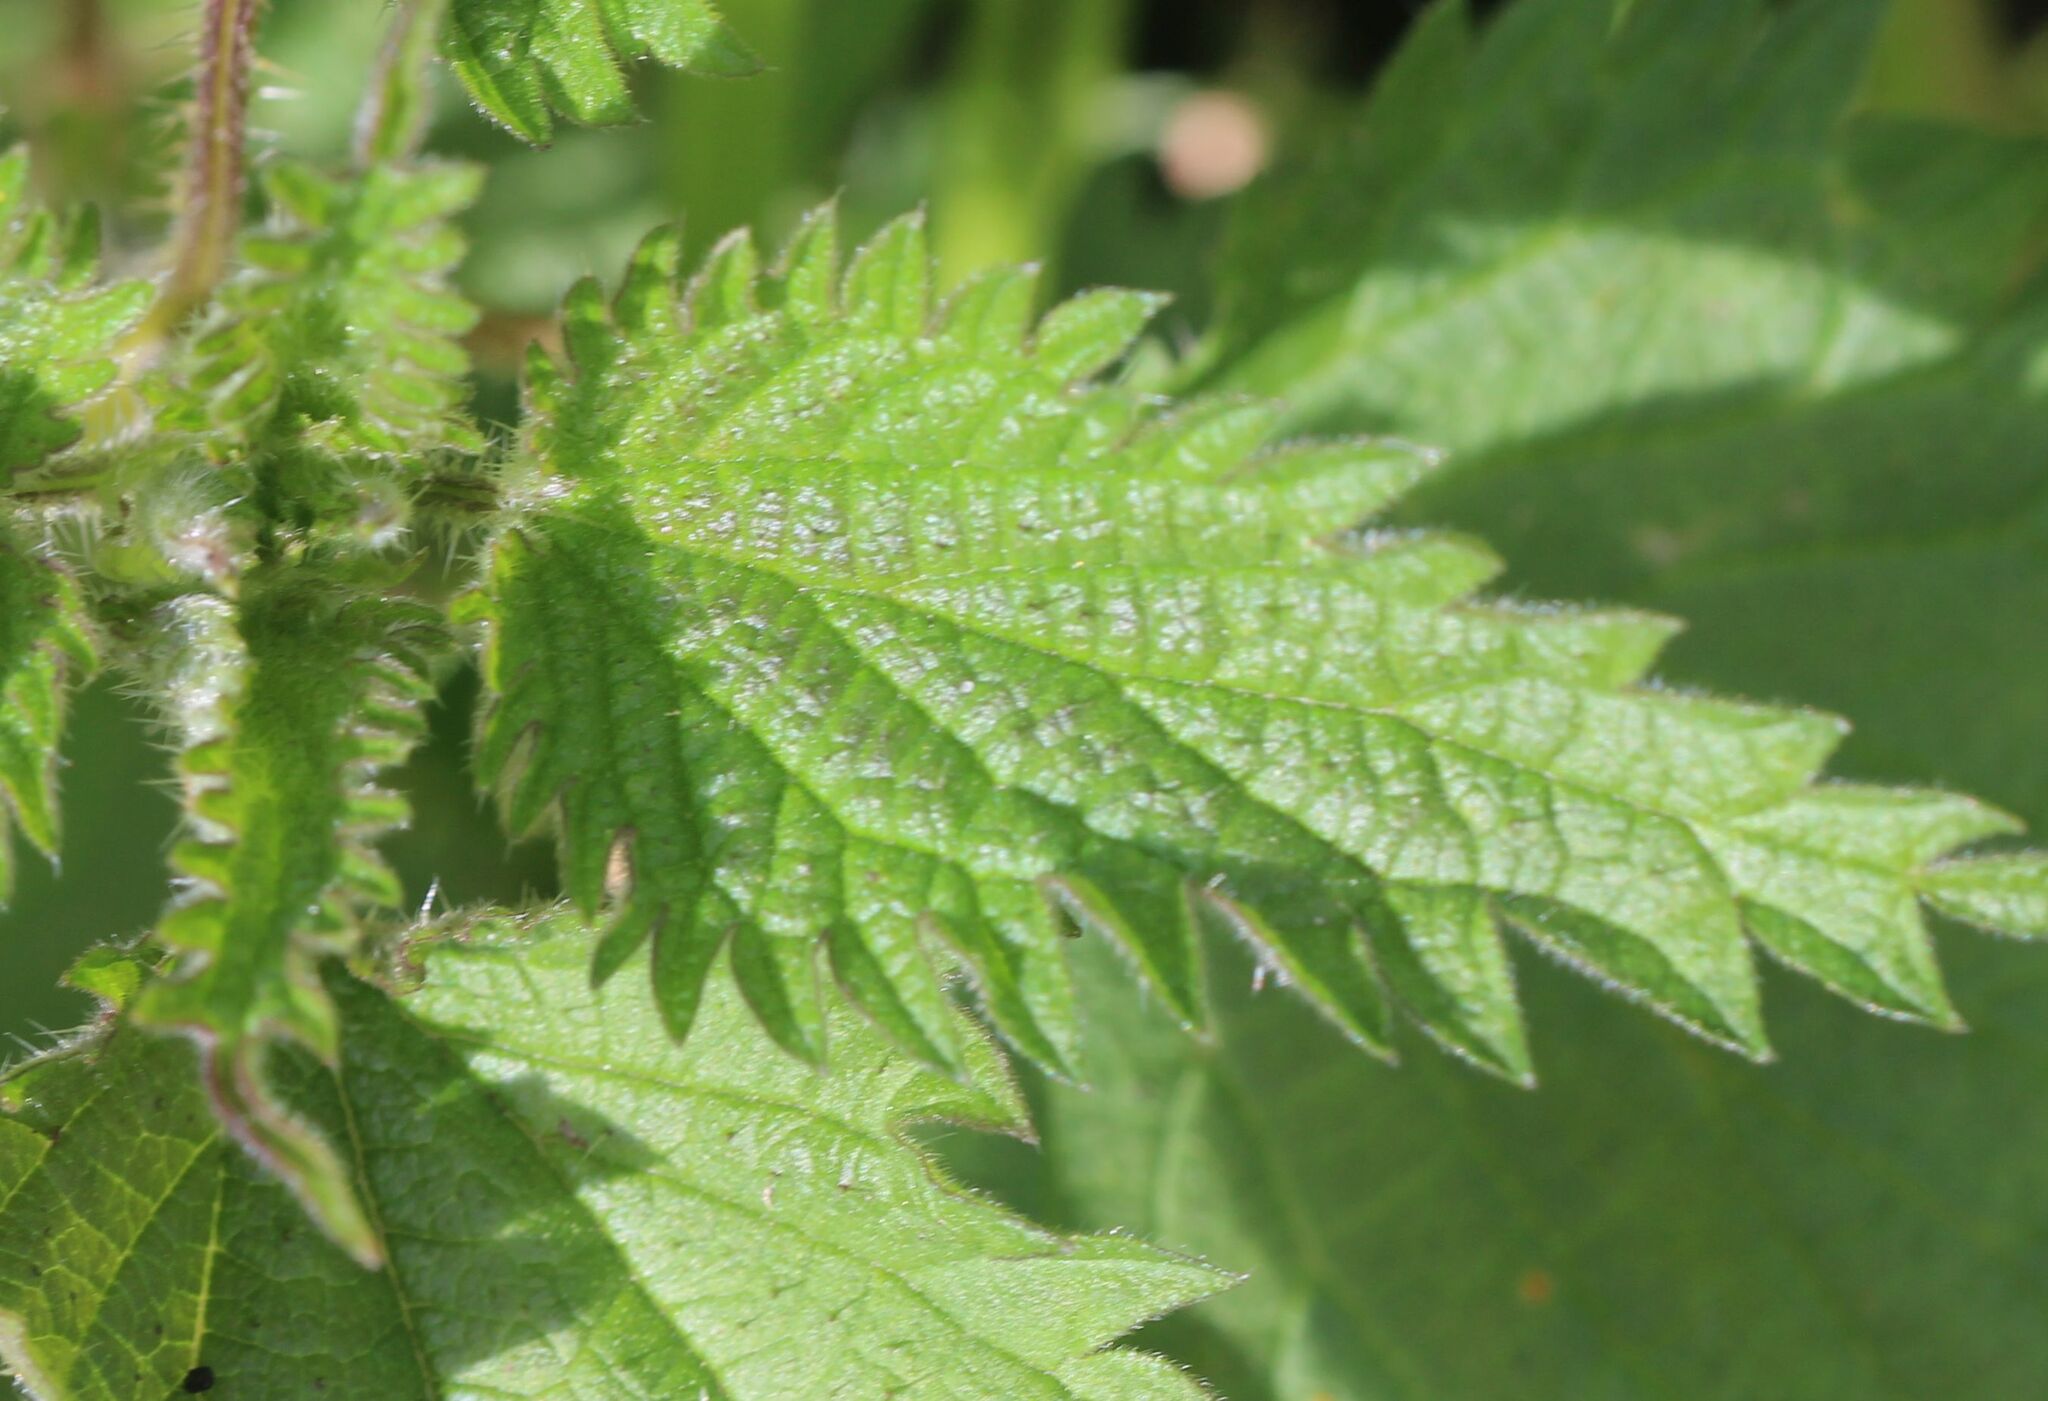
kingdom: Plantae
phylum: Tracheophyta
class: Magnoliopsida
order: Rosales
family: Urticaceae
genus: Urtica
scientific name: Urtica dioica
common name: Common nettle
